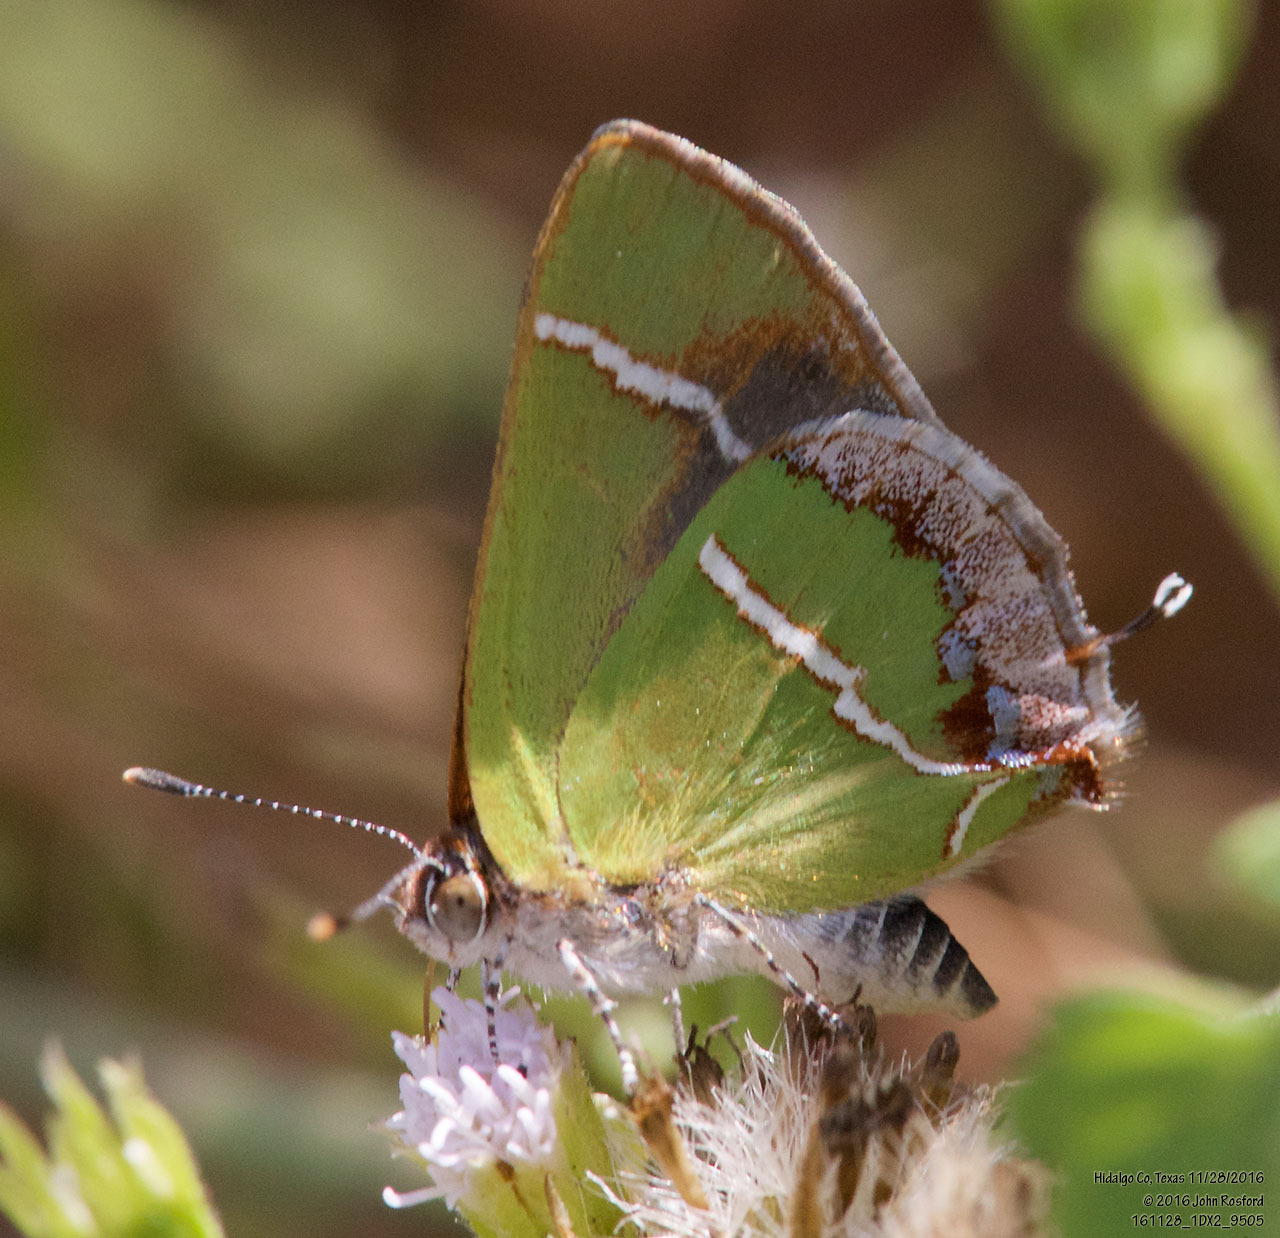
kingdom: Animalia
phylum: Arthropoda
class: Insecta
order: Lepidoptera
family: Lycaenidae
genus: Chlorostrymon
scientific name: Chlorostrymon simaethis
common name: Silver-banded hairstreak
